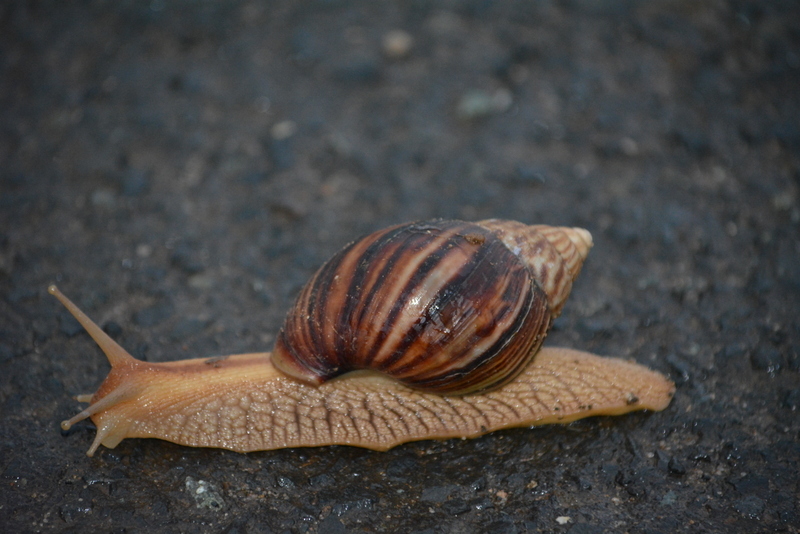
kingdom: Animalia
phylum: Mollusca
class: Gastropoda
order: Stylommatophora
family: Achatinidae
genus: Lissachatina
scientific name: Lissachatina immaculata
